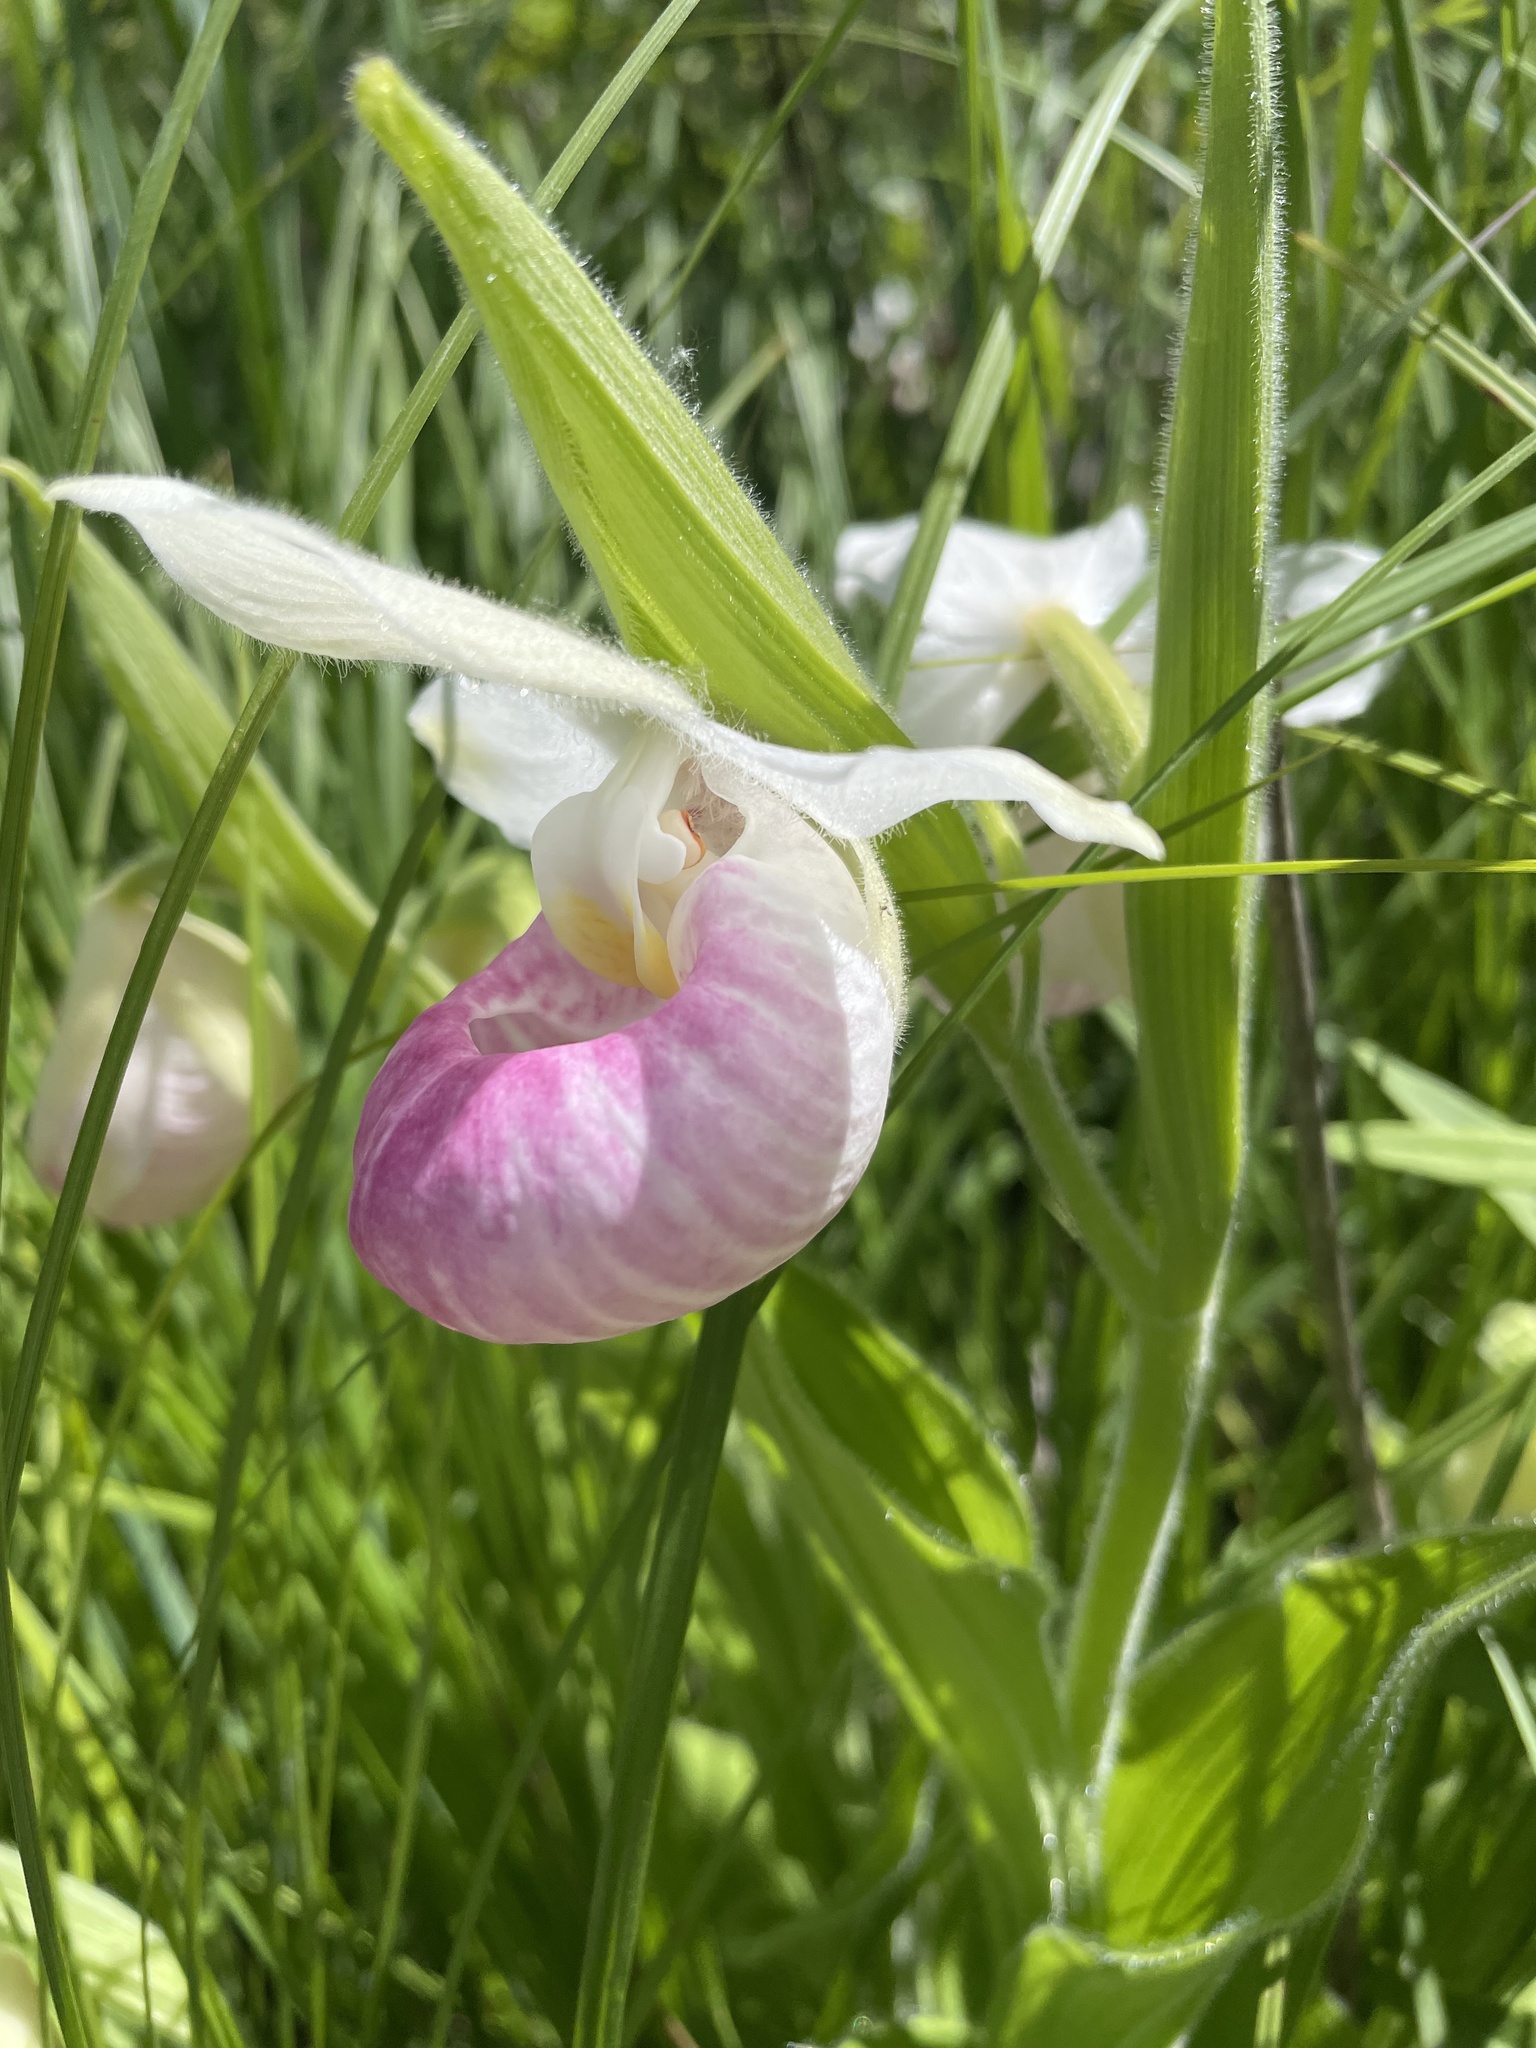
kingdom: Plantae
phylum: Tracheophyta
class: Liliopsida
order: Asparagales
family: Orchidaceae
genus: Cypripedium
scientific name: Cypripedium reginae
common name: Queen lady's-slipper
